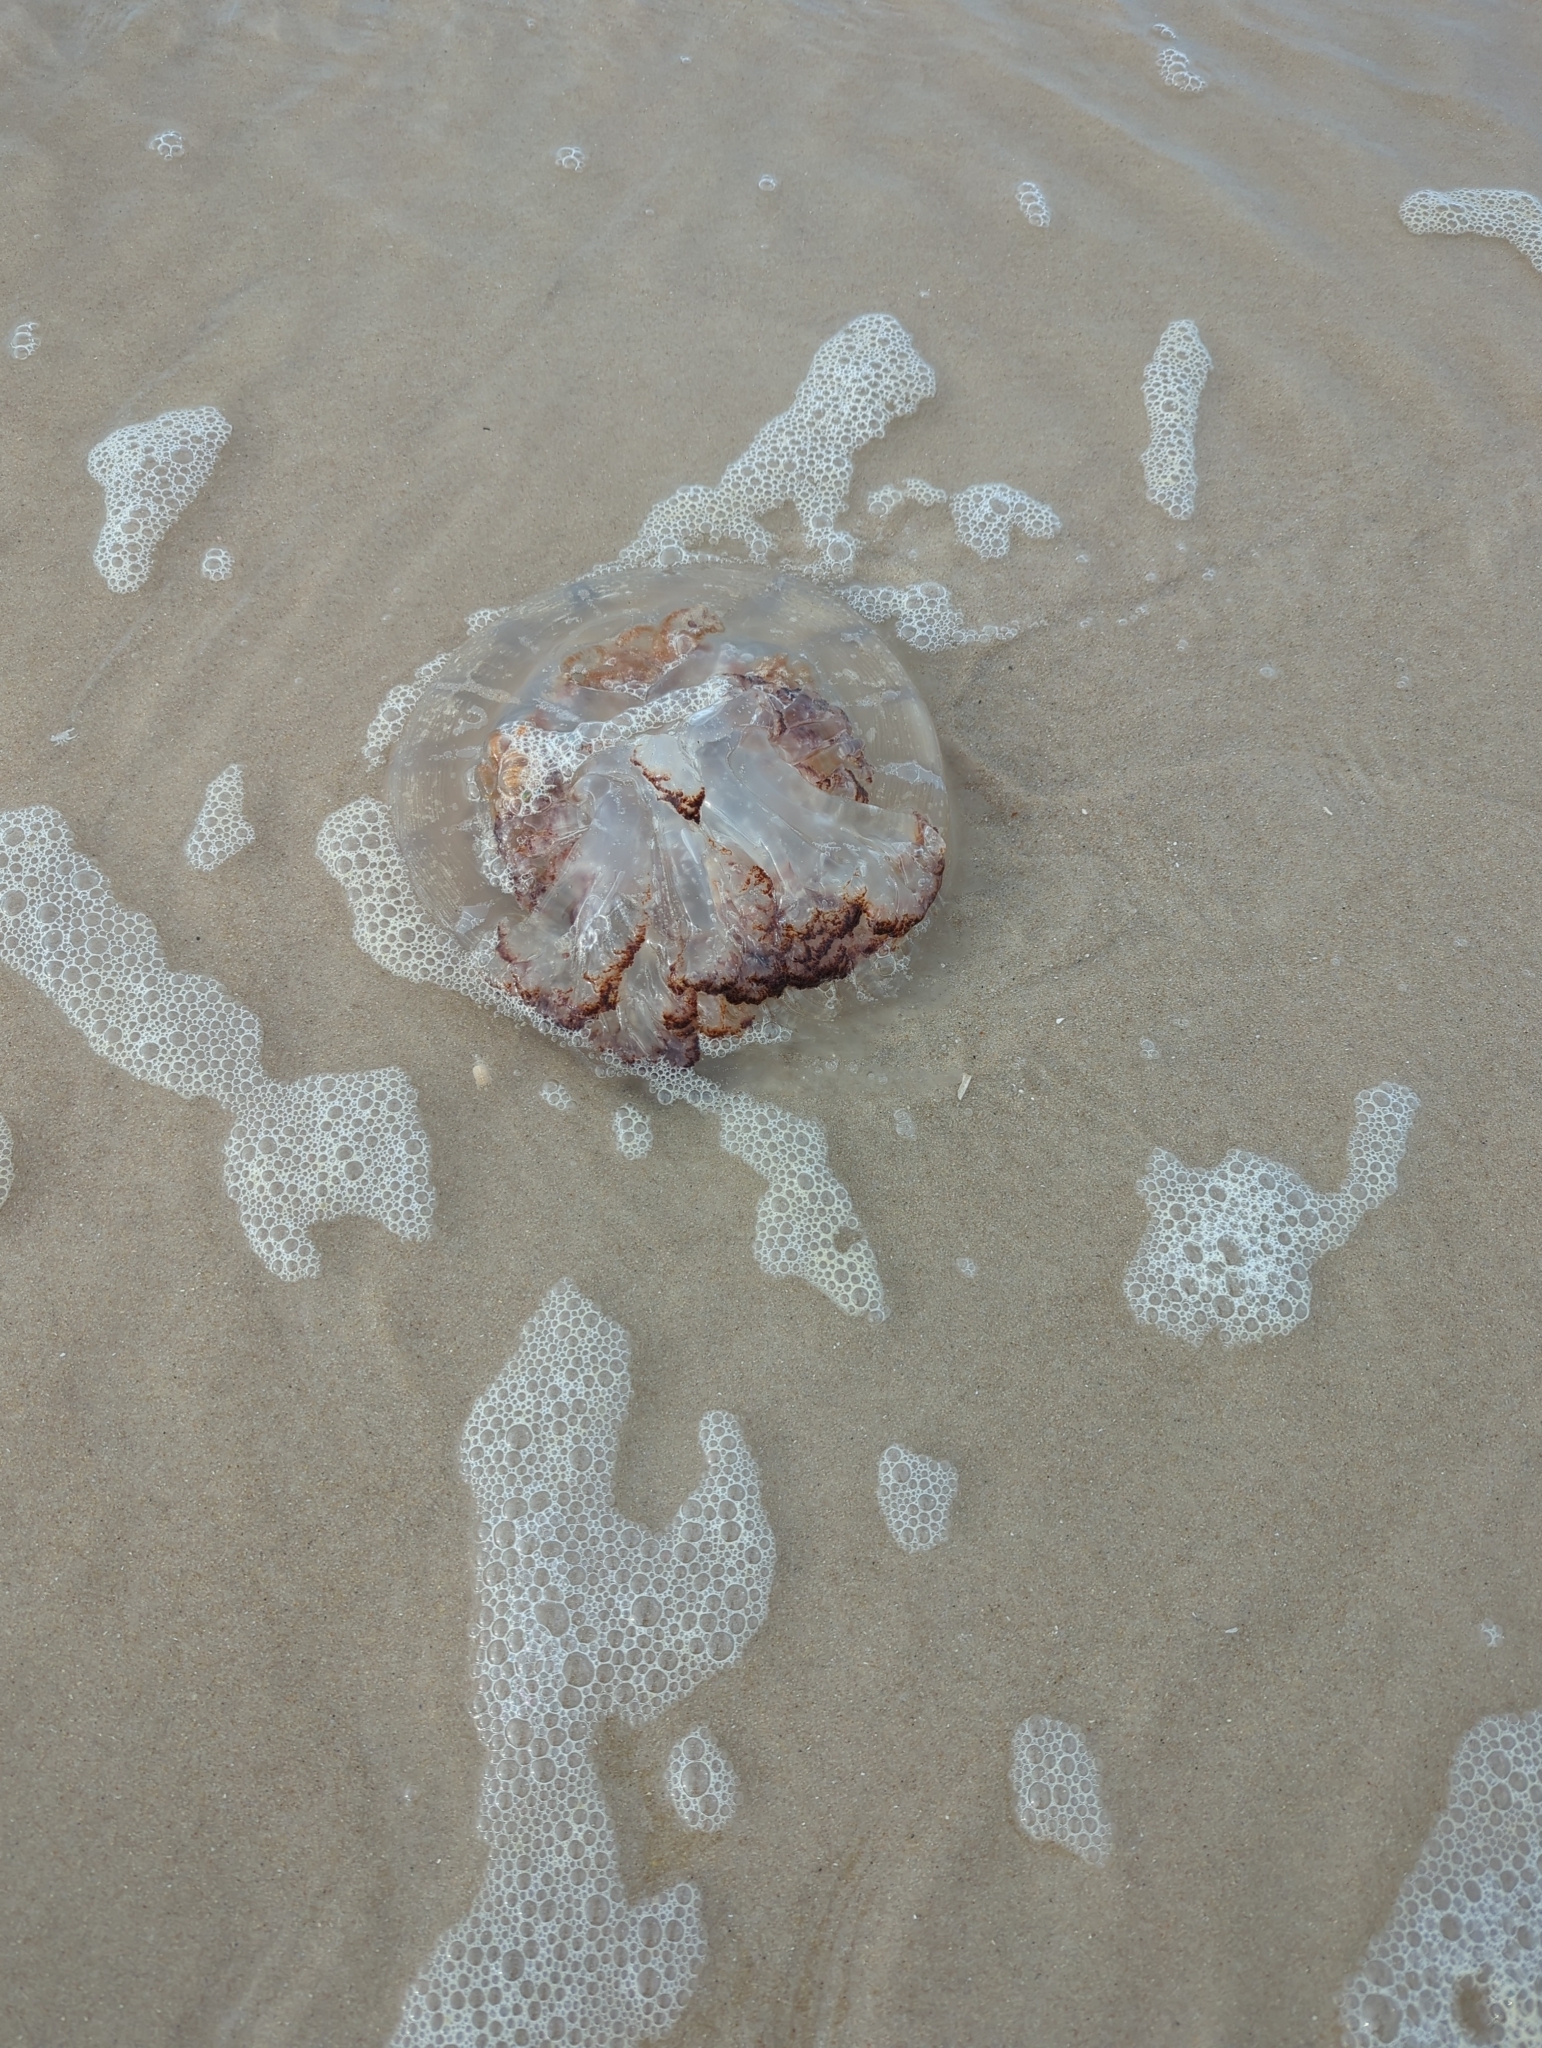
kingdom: Animalia
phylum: Cnidaria
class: Scyphozoa
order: Rhizostomeae
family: Rhizostomatidae
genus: Rhopilema
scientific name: Rhopilema verrilli
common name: Mushroom cap jellyfish
